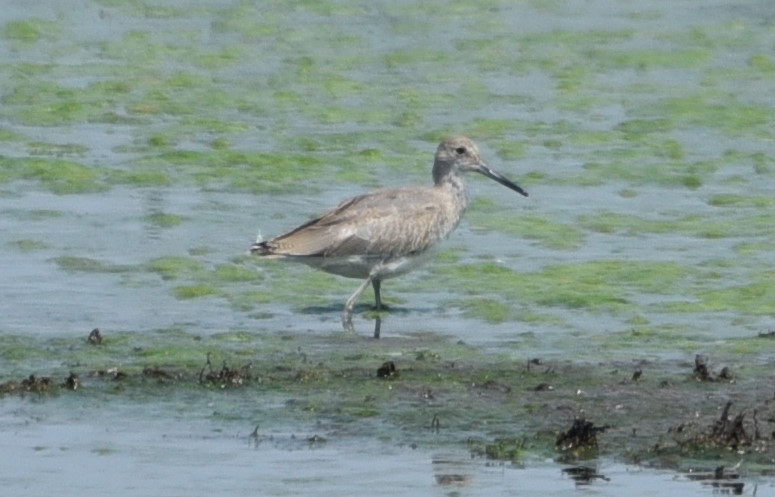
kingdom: Animalia
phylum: Chordata
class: Aves
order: Charadriiformes
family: Scolopacidae
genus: Tringa
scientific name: Tringa semipalmata
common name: Willet
